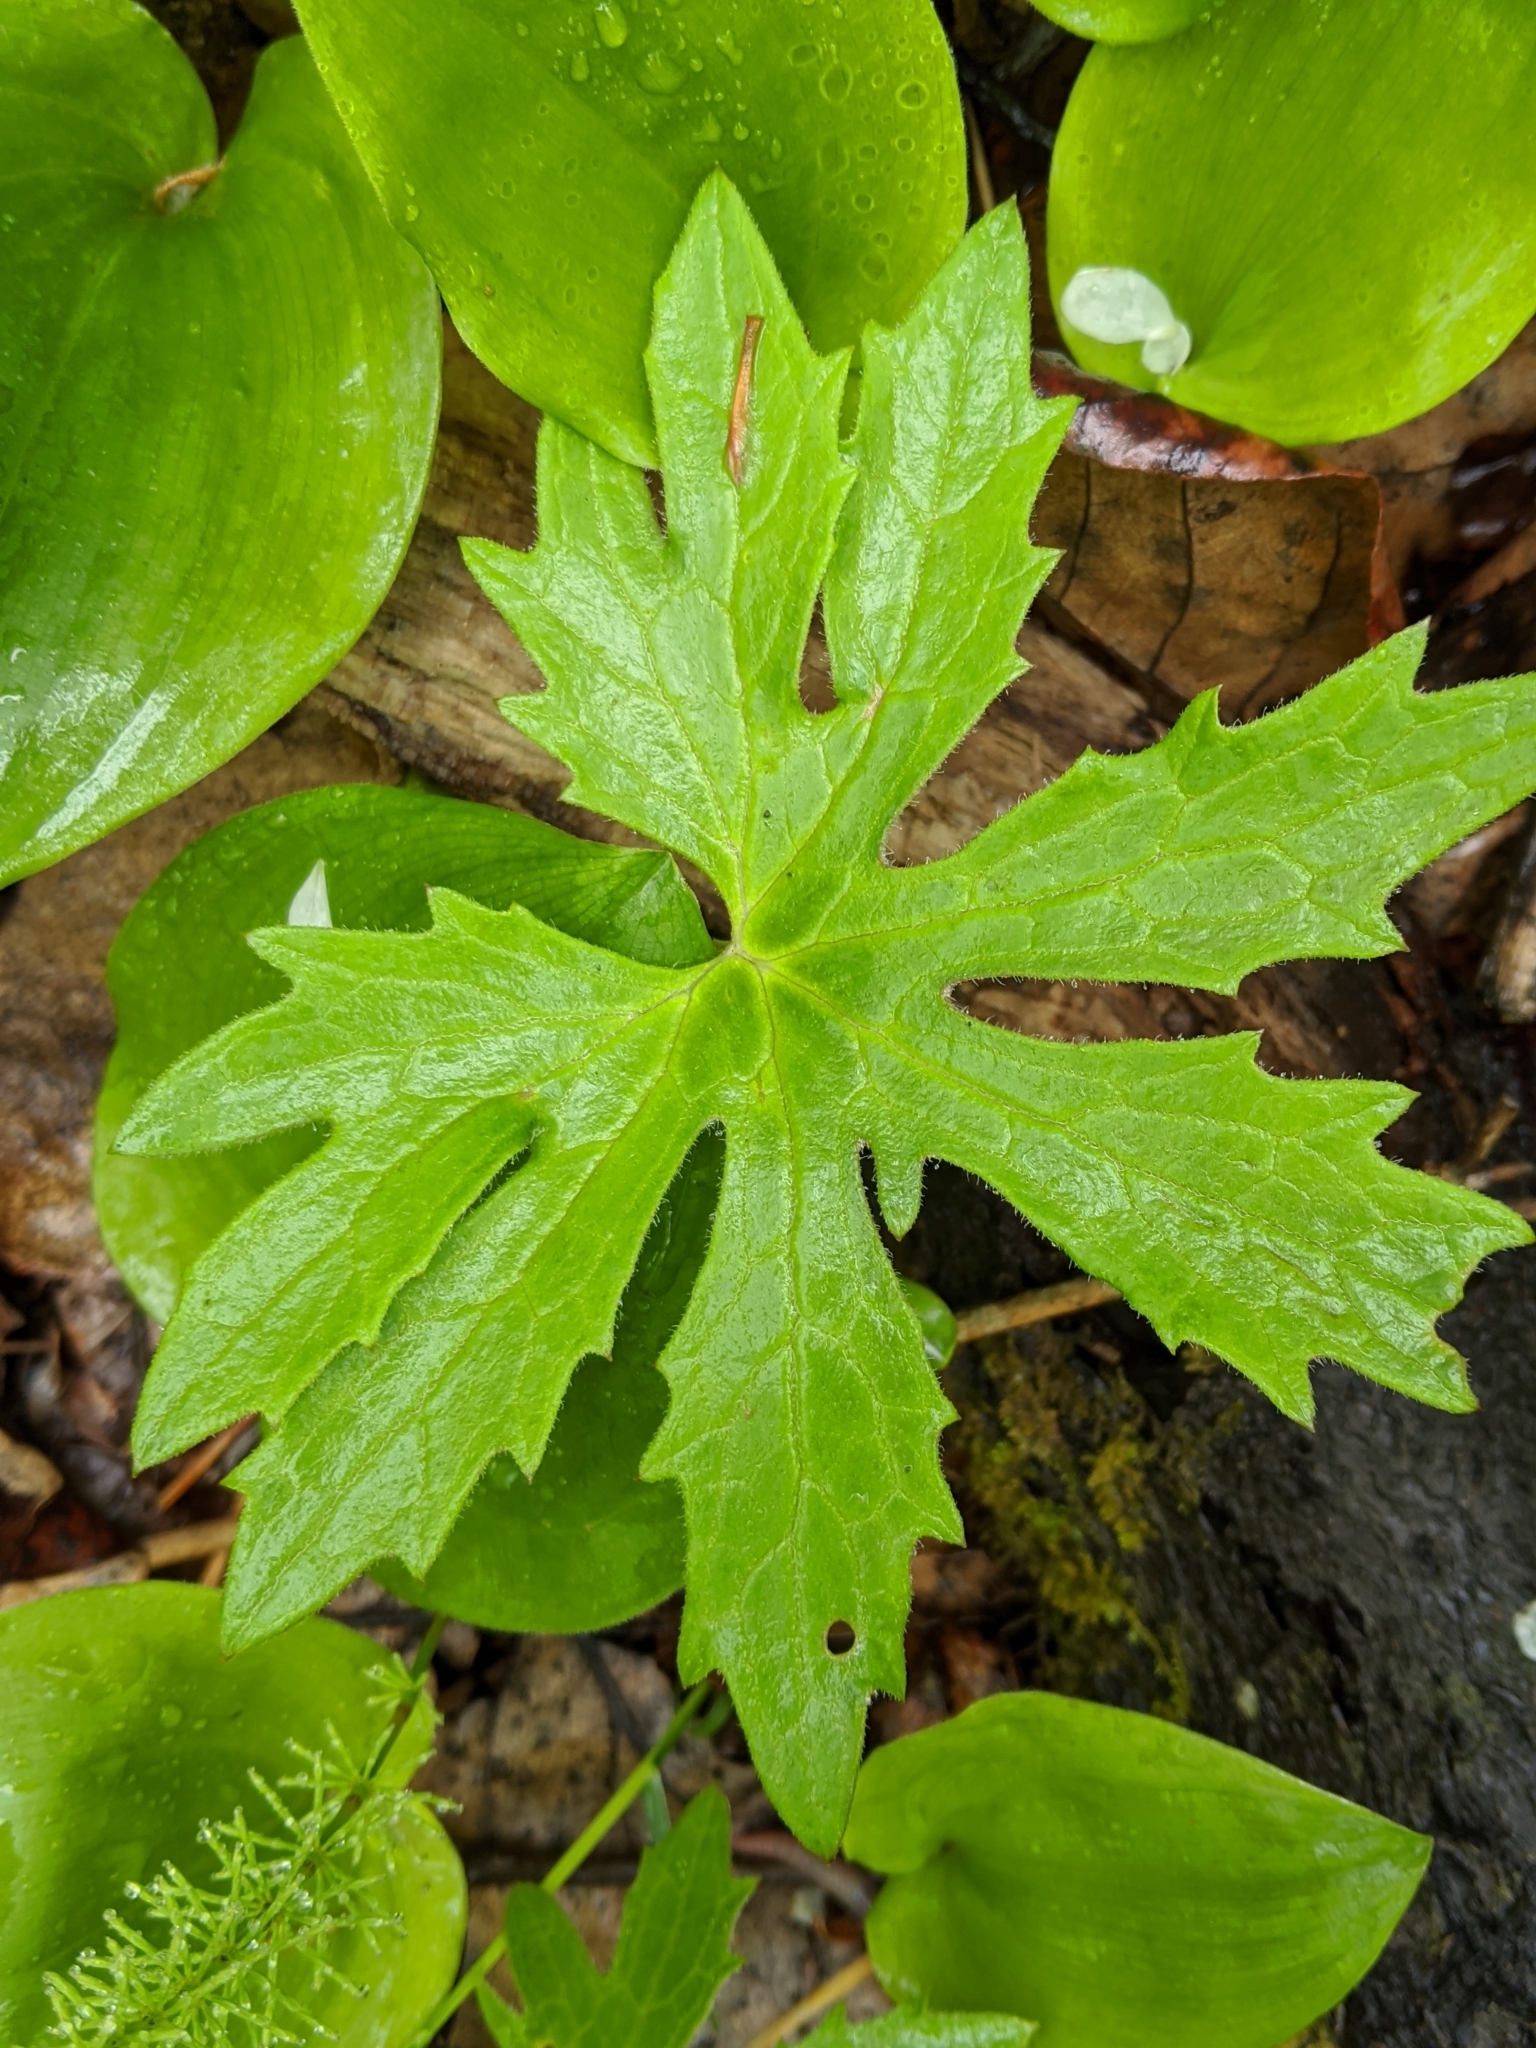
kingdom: Plantae
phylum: Tracheophyta
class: Magnoliopsida
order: Asterales
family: Asteraceae
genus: Petasites
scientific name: Petasites frigidus
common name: Arctic butterbur
